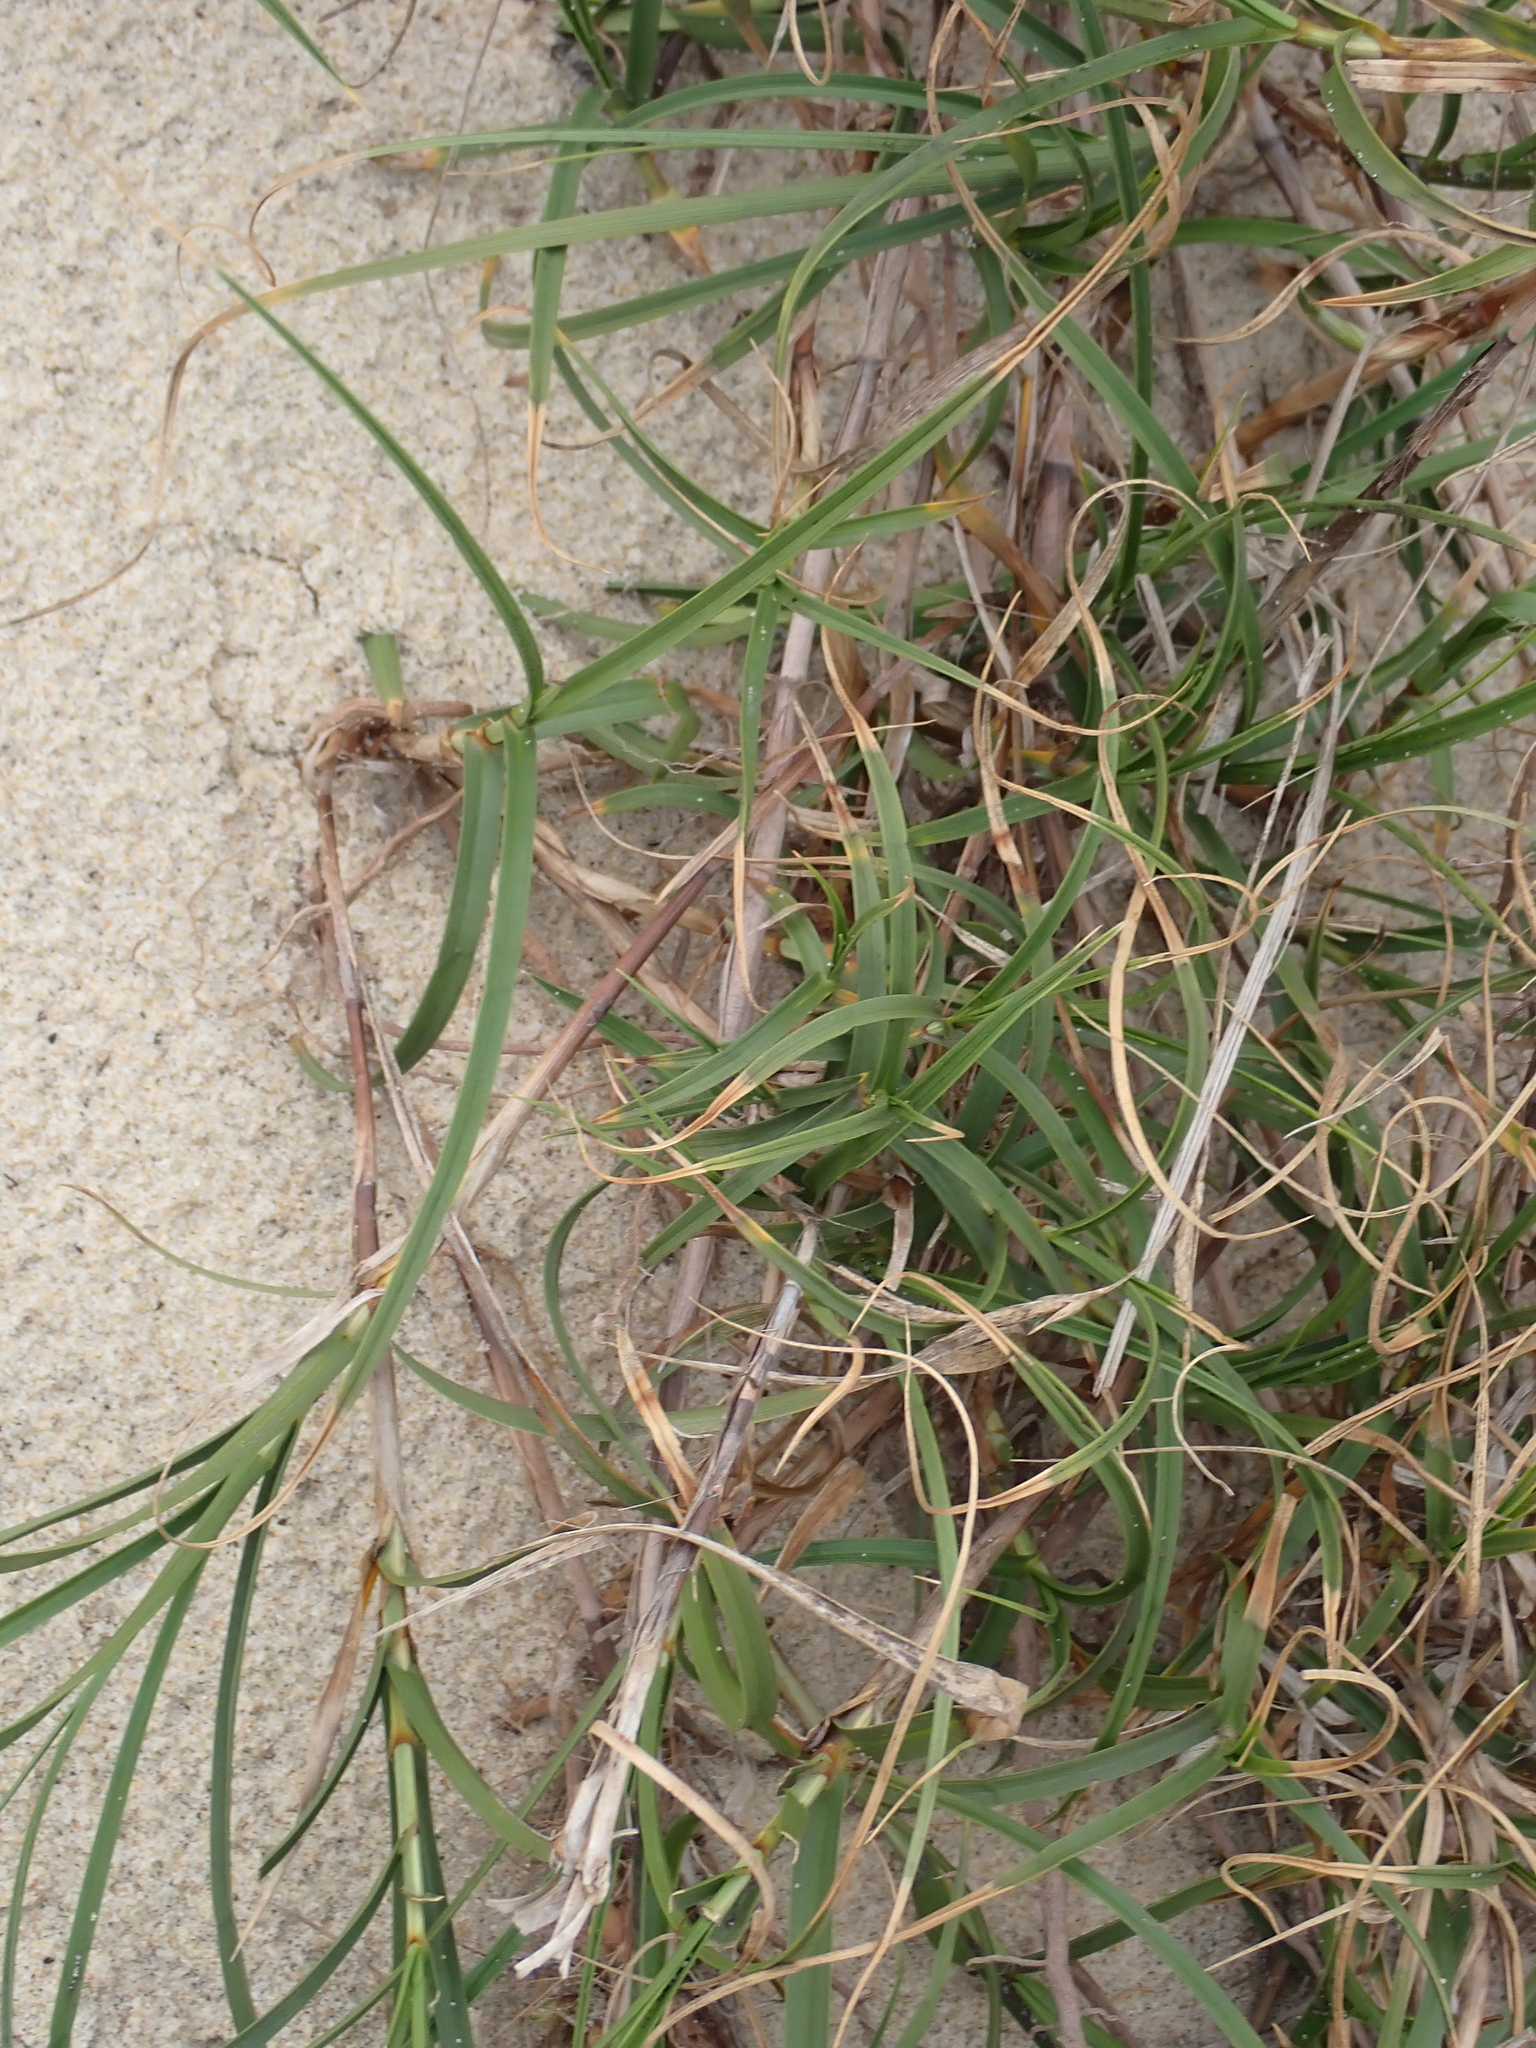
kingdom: Plantae
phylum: Tracheophyta
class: Liliopsida
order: Poales
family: Cyperaceae
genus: Carex
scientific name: Carex arenaria
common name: Sand sedge
